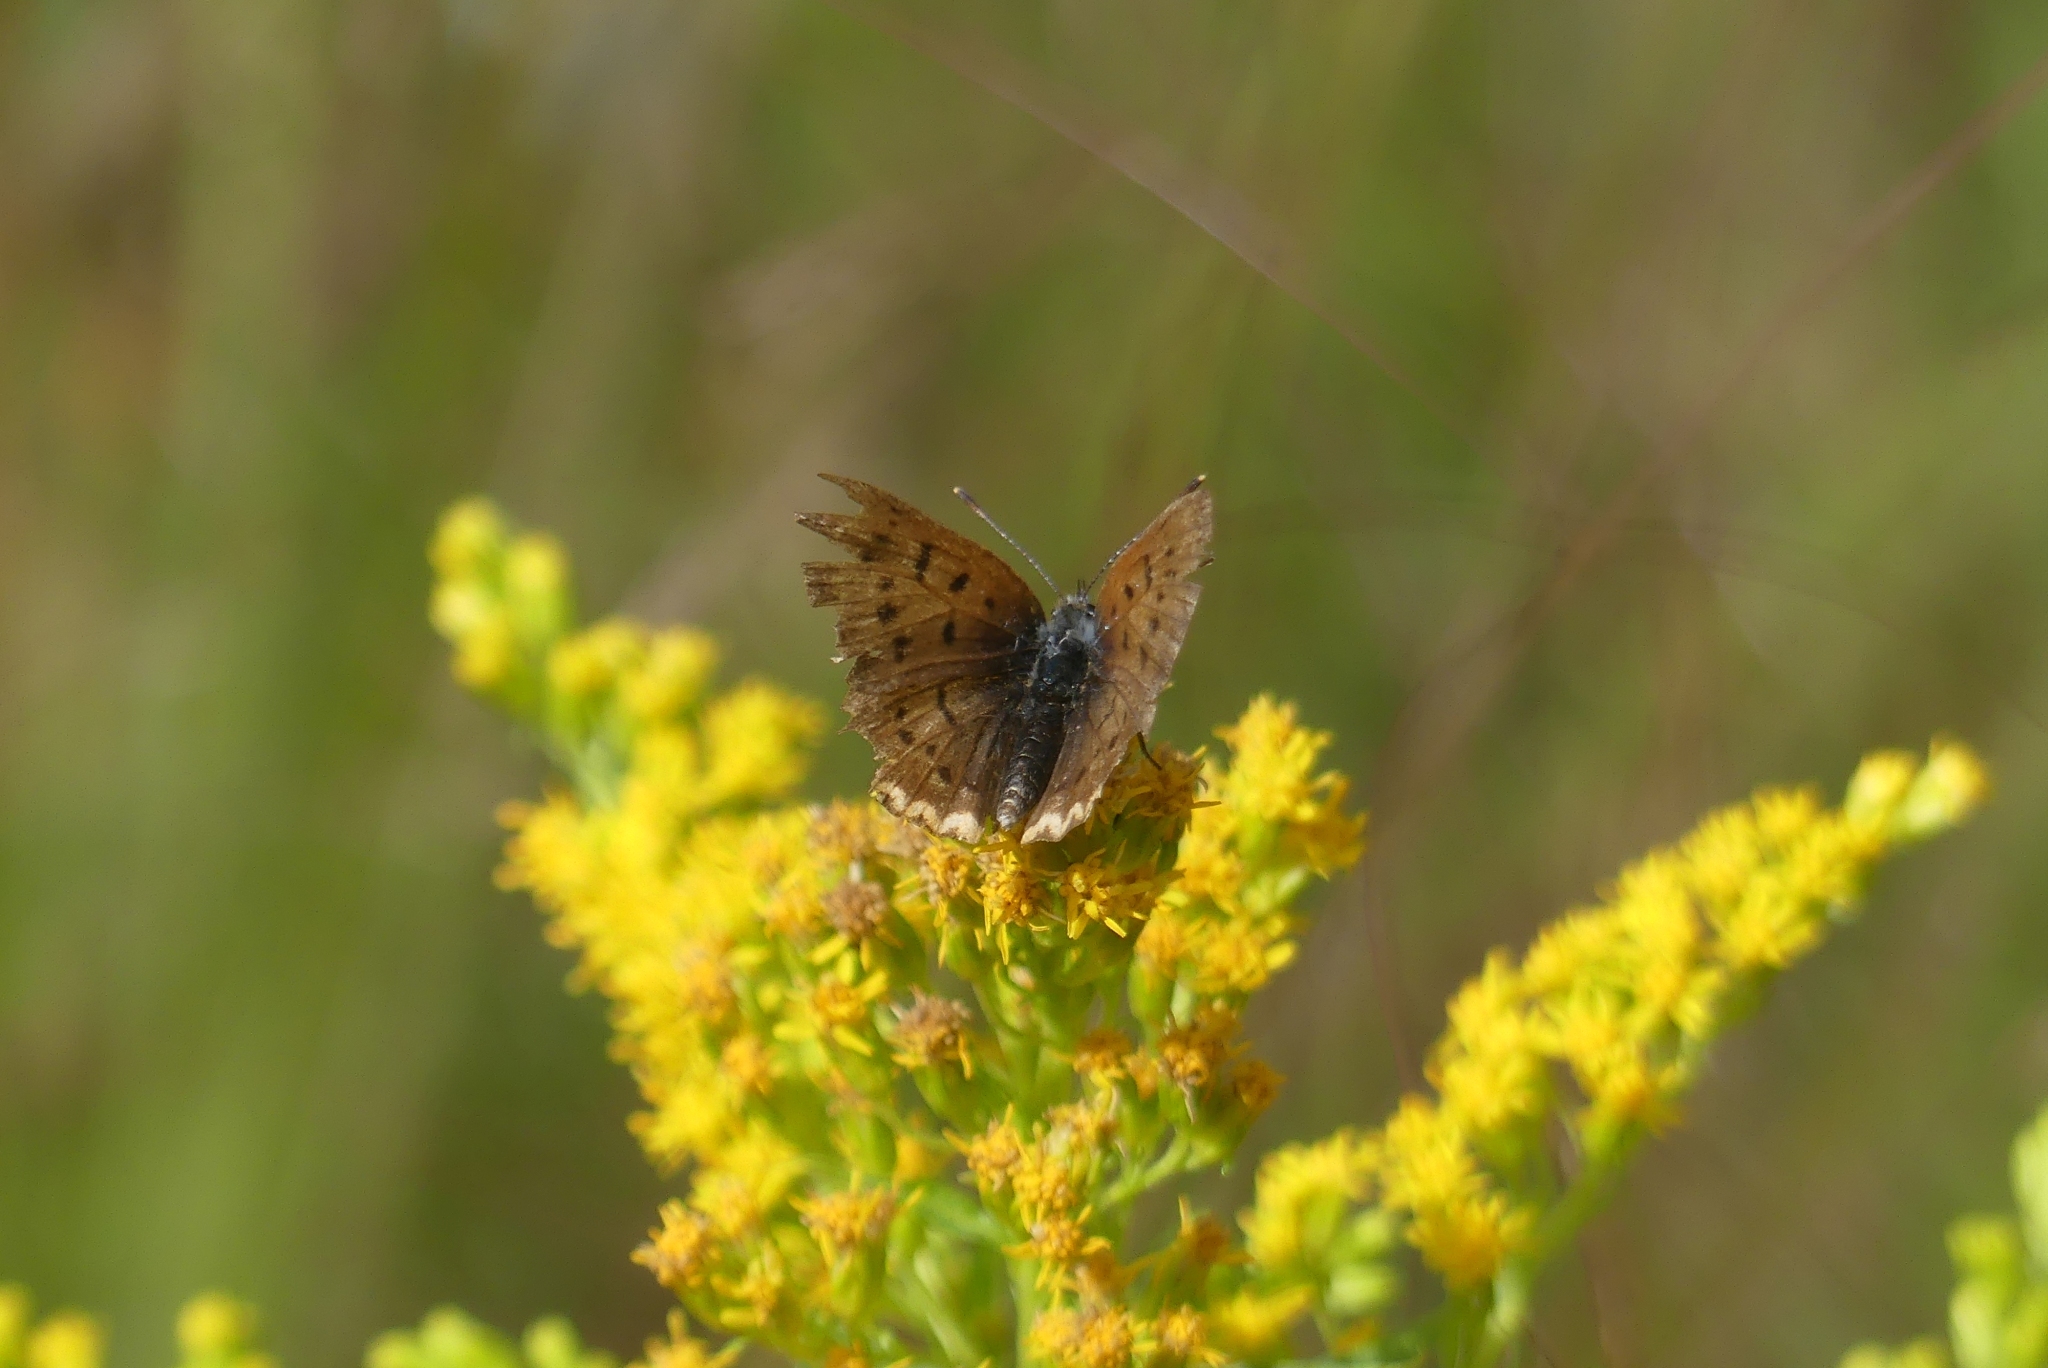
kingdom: Animalia
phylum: Arthropoda
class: Insecta
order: Lepidoptera
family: Lycaenidae
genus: Tharsalea
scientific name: Tharsalea dorcas
